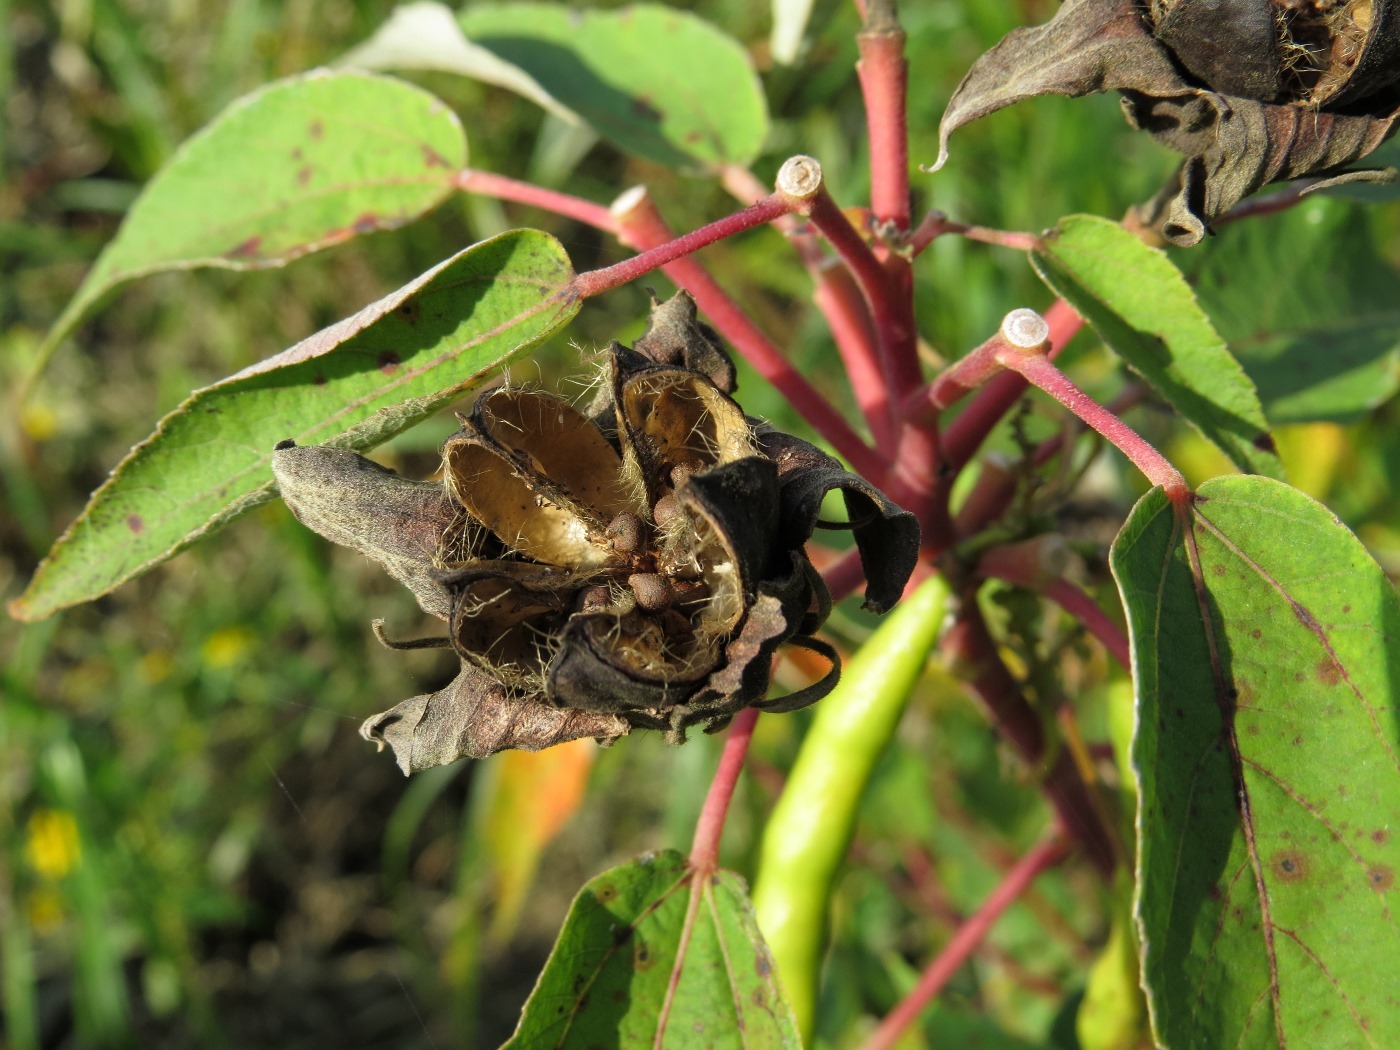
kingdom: Plantae
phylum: Tracheophyta
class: Magnoliopsida
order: Malvales
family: Malvaceae
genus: Hibiscus
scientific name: Hibiscus moscheutos
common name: Common rose-mallow
